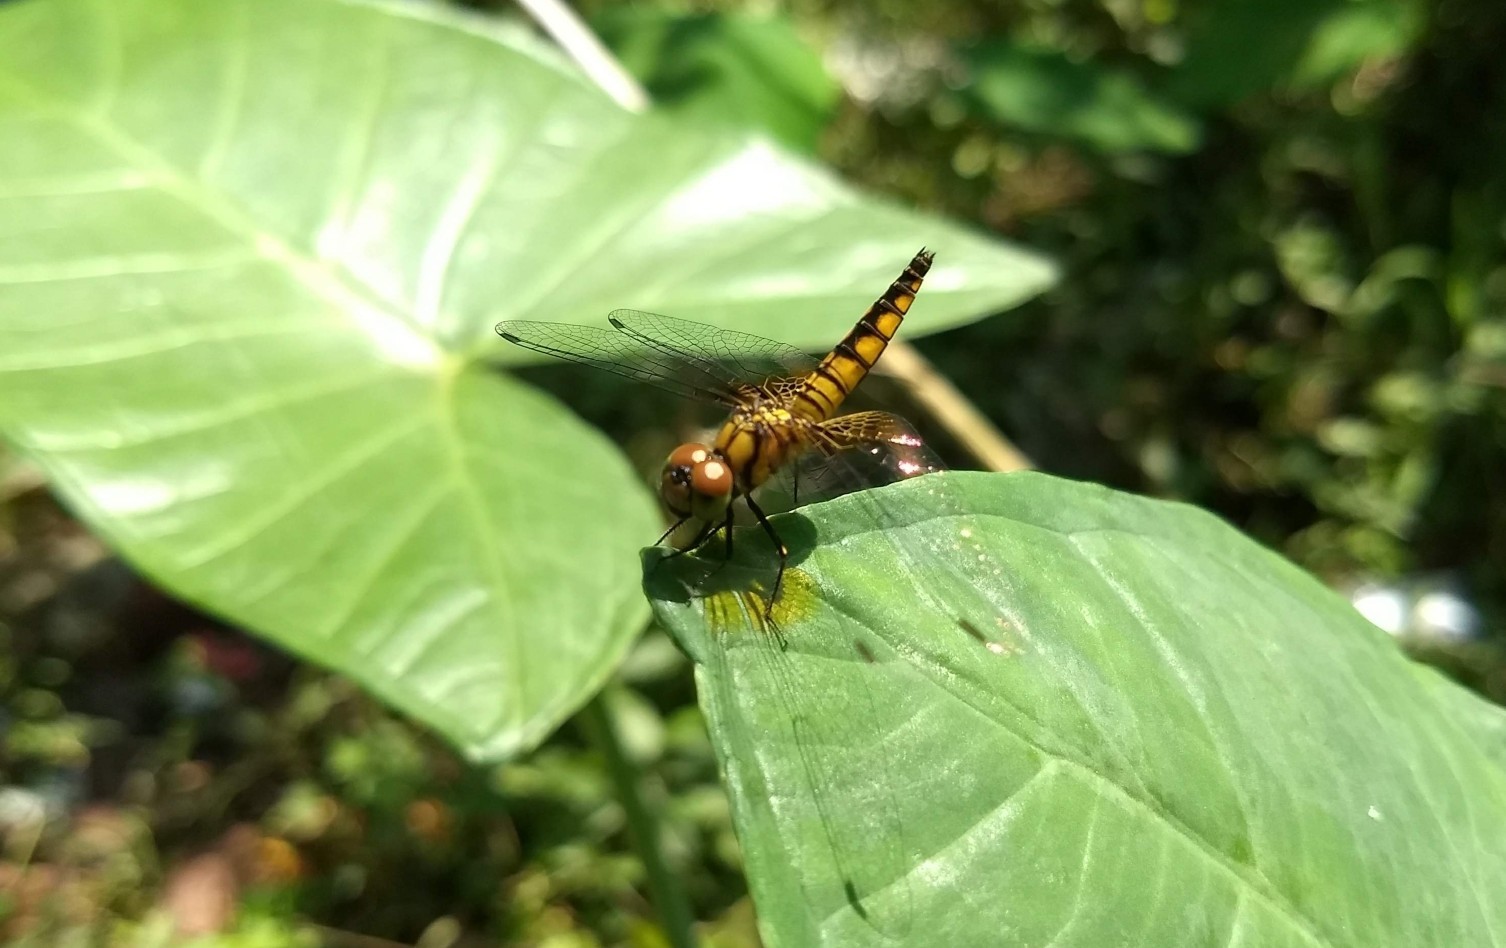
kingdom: Animalia
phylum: Arthropoda
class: Insecta
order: Odonata
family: Libellulidae
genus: Aethriamanta
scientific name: Aethriamanta brevipennis
